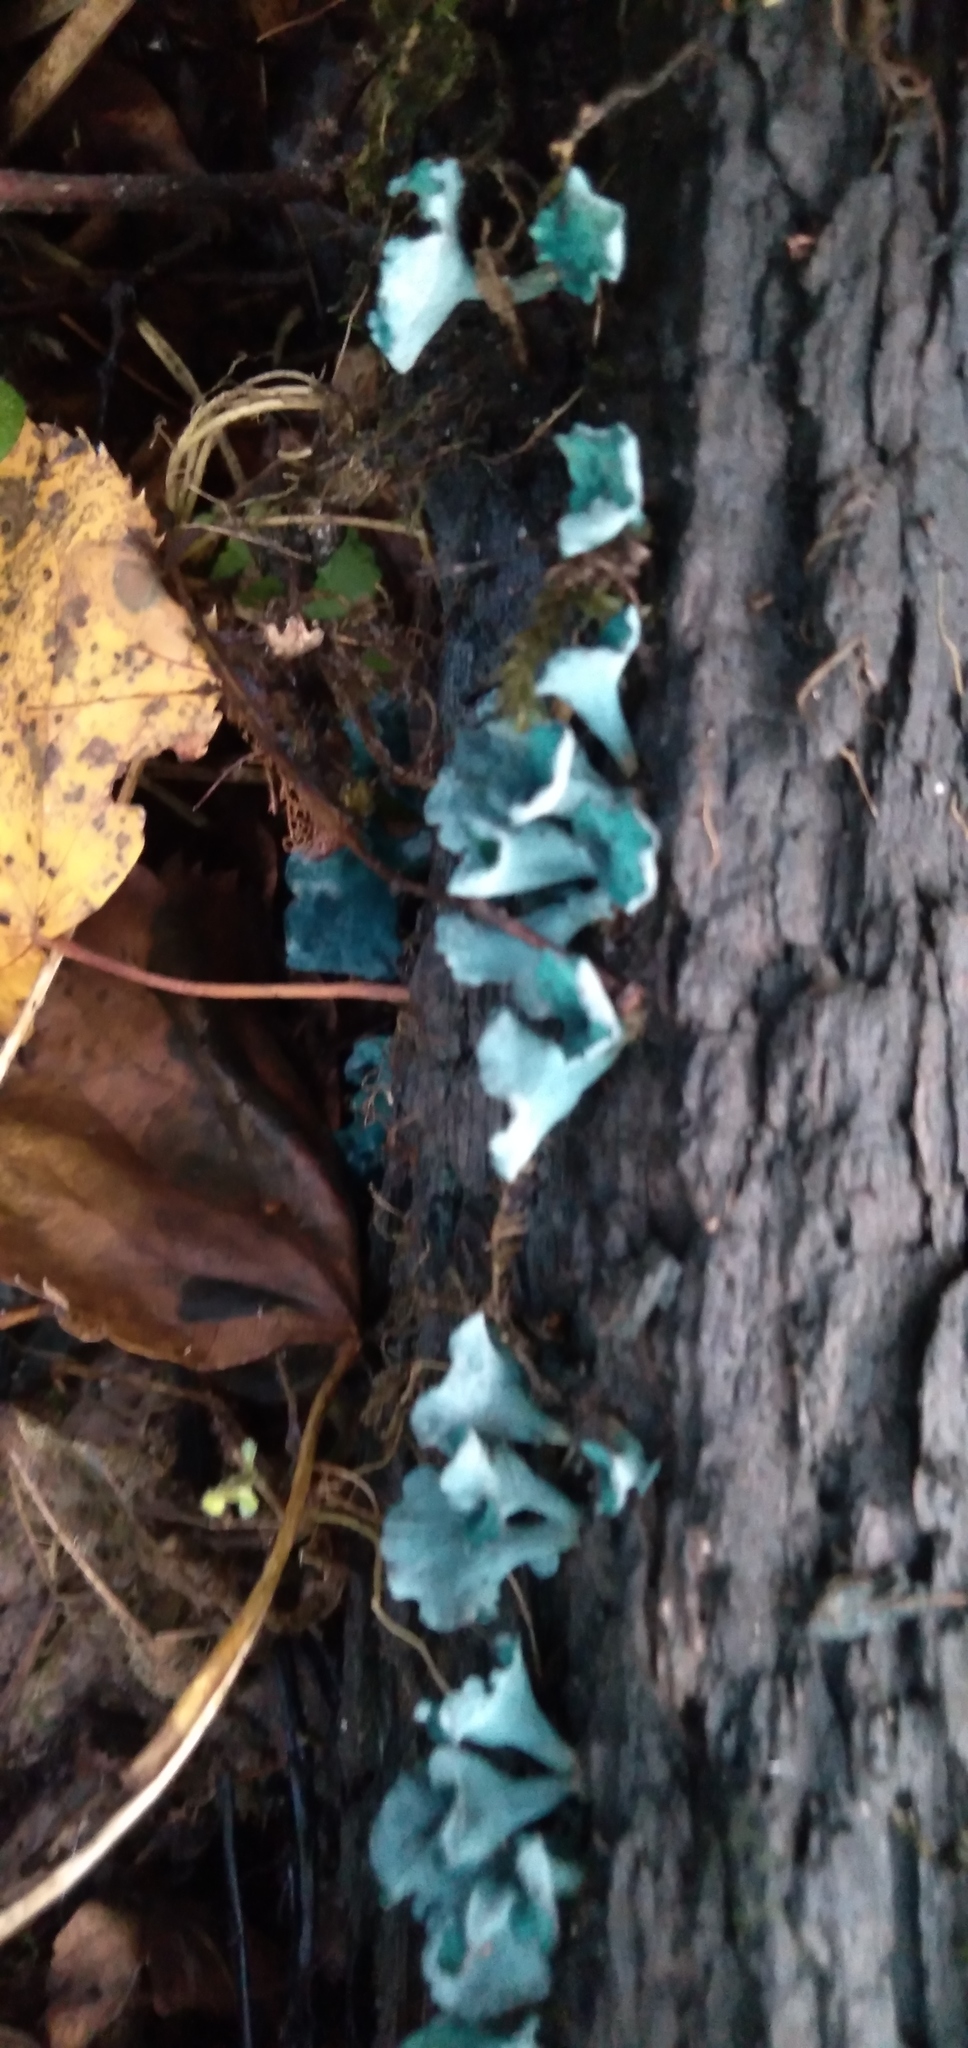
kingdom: Fungi
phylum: Ascomycota
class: Leotiomycetes
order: Helotiales
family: Chlorociboriaceae
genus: Chlorociboria
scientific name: Chlorociboria aeruginascens
